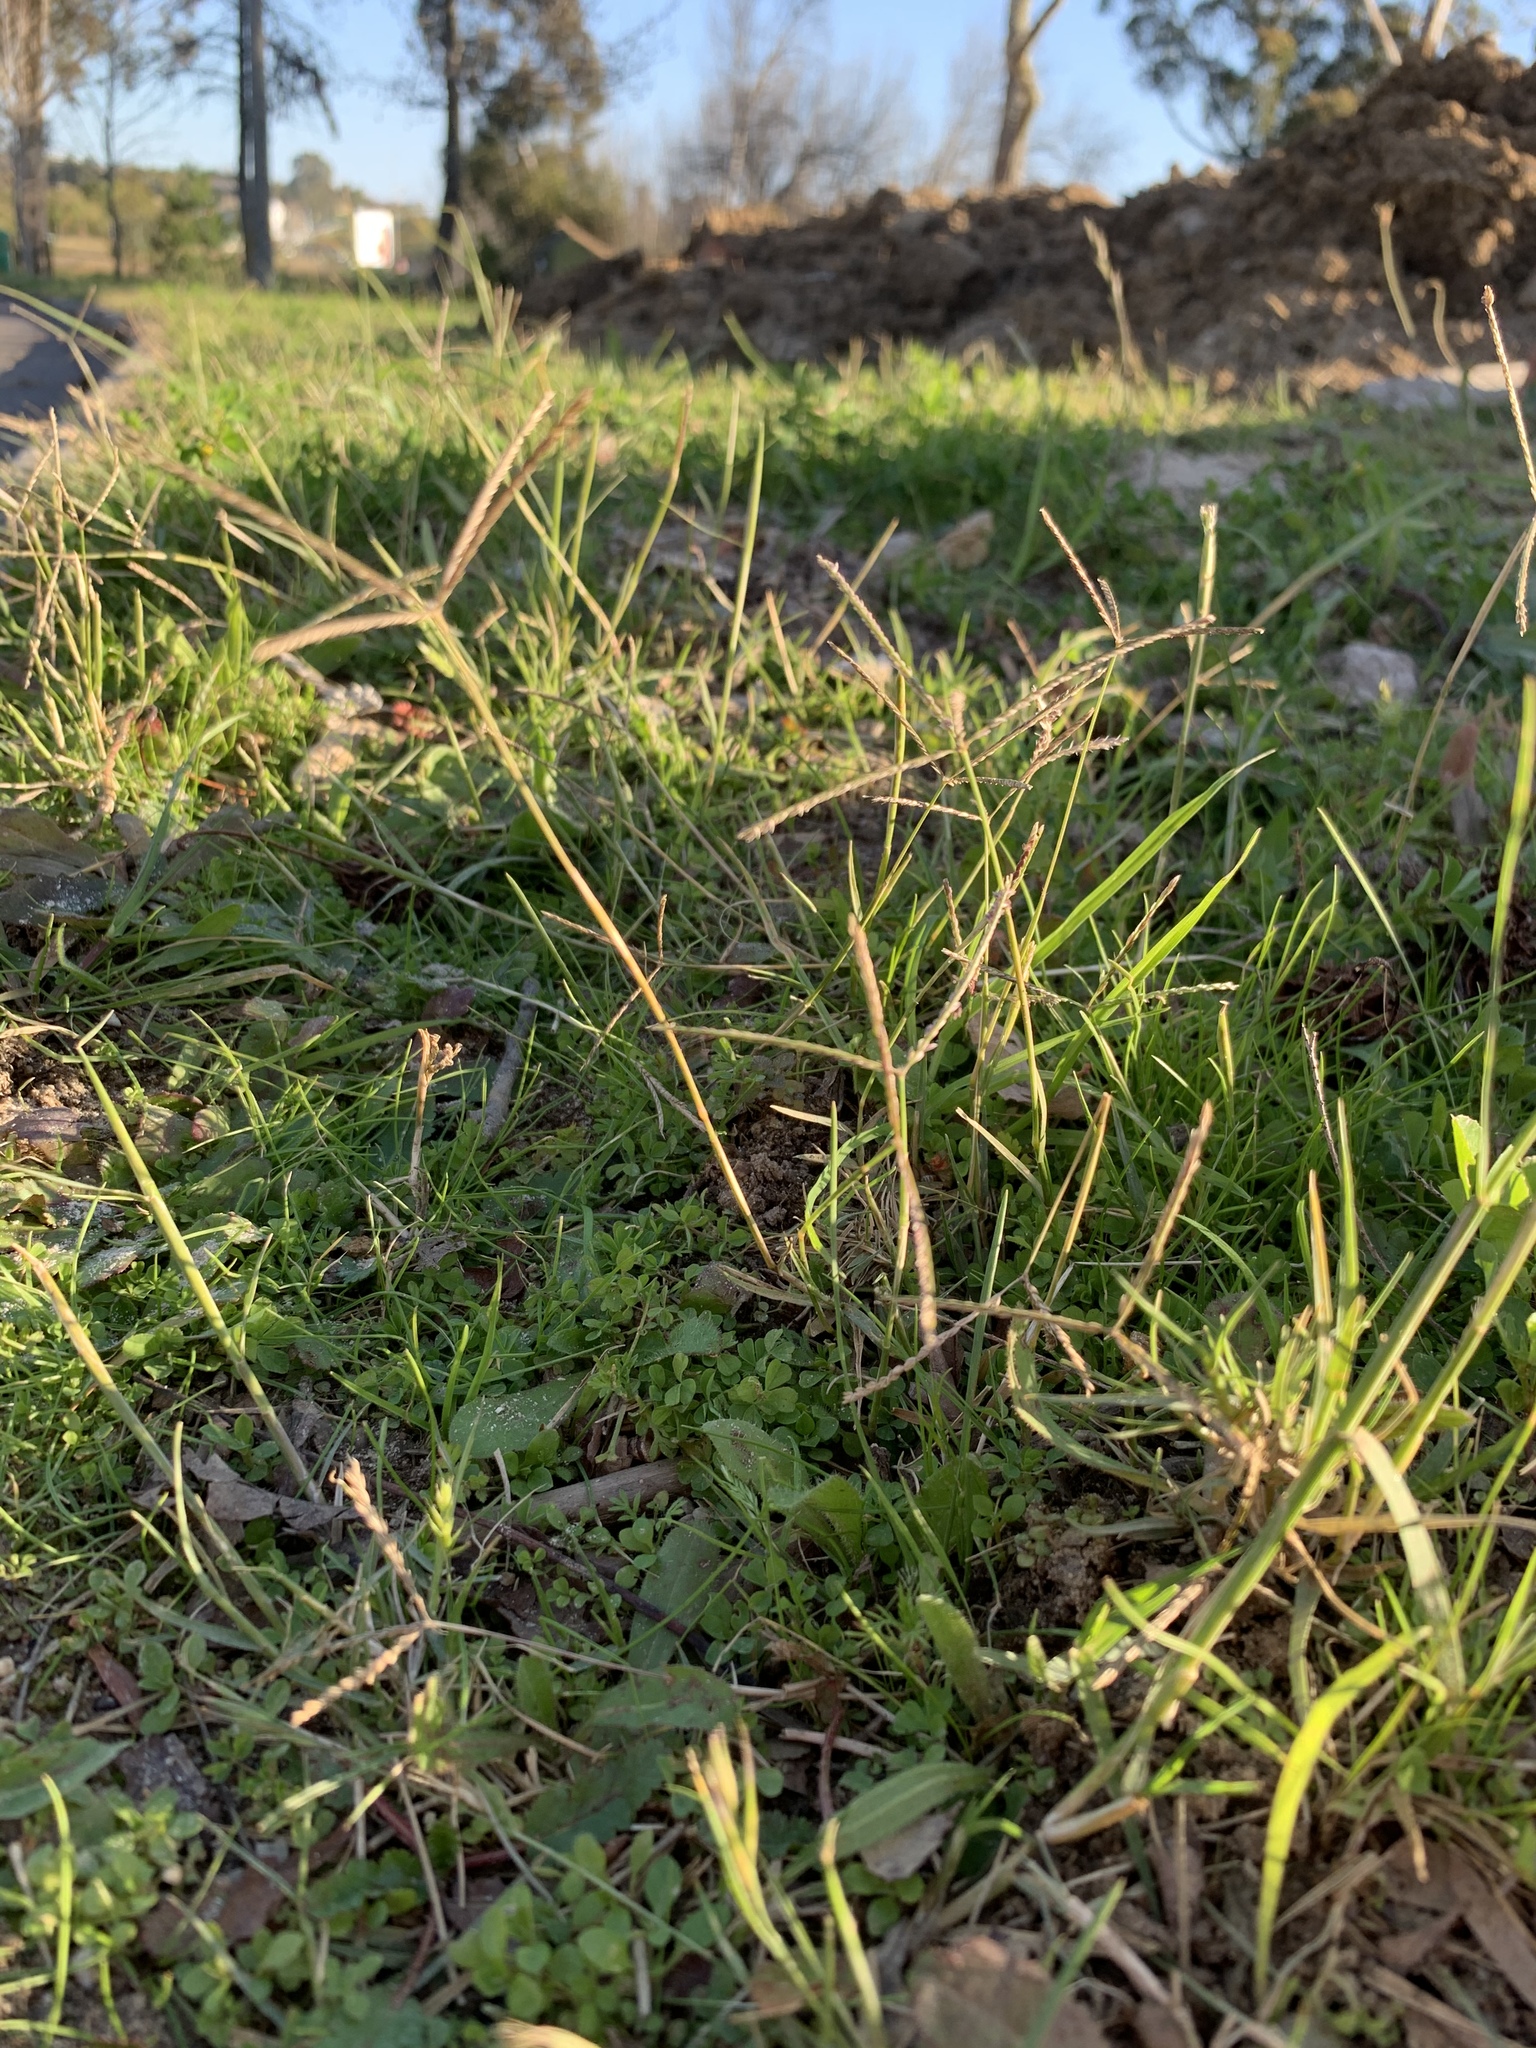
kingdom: Plantae
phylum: Tracheophyta
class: Liliopsida
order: Poales
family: Poaceae
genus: Cynodon
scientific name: Cynodon dactylon
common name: Bermuda grass
